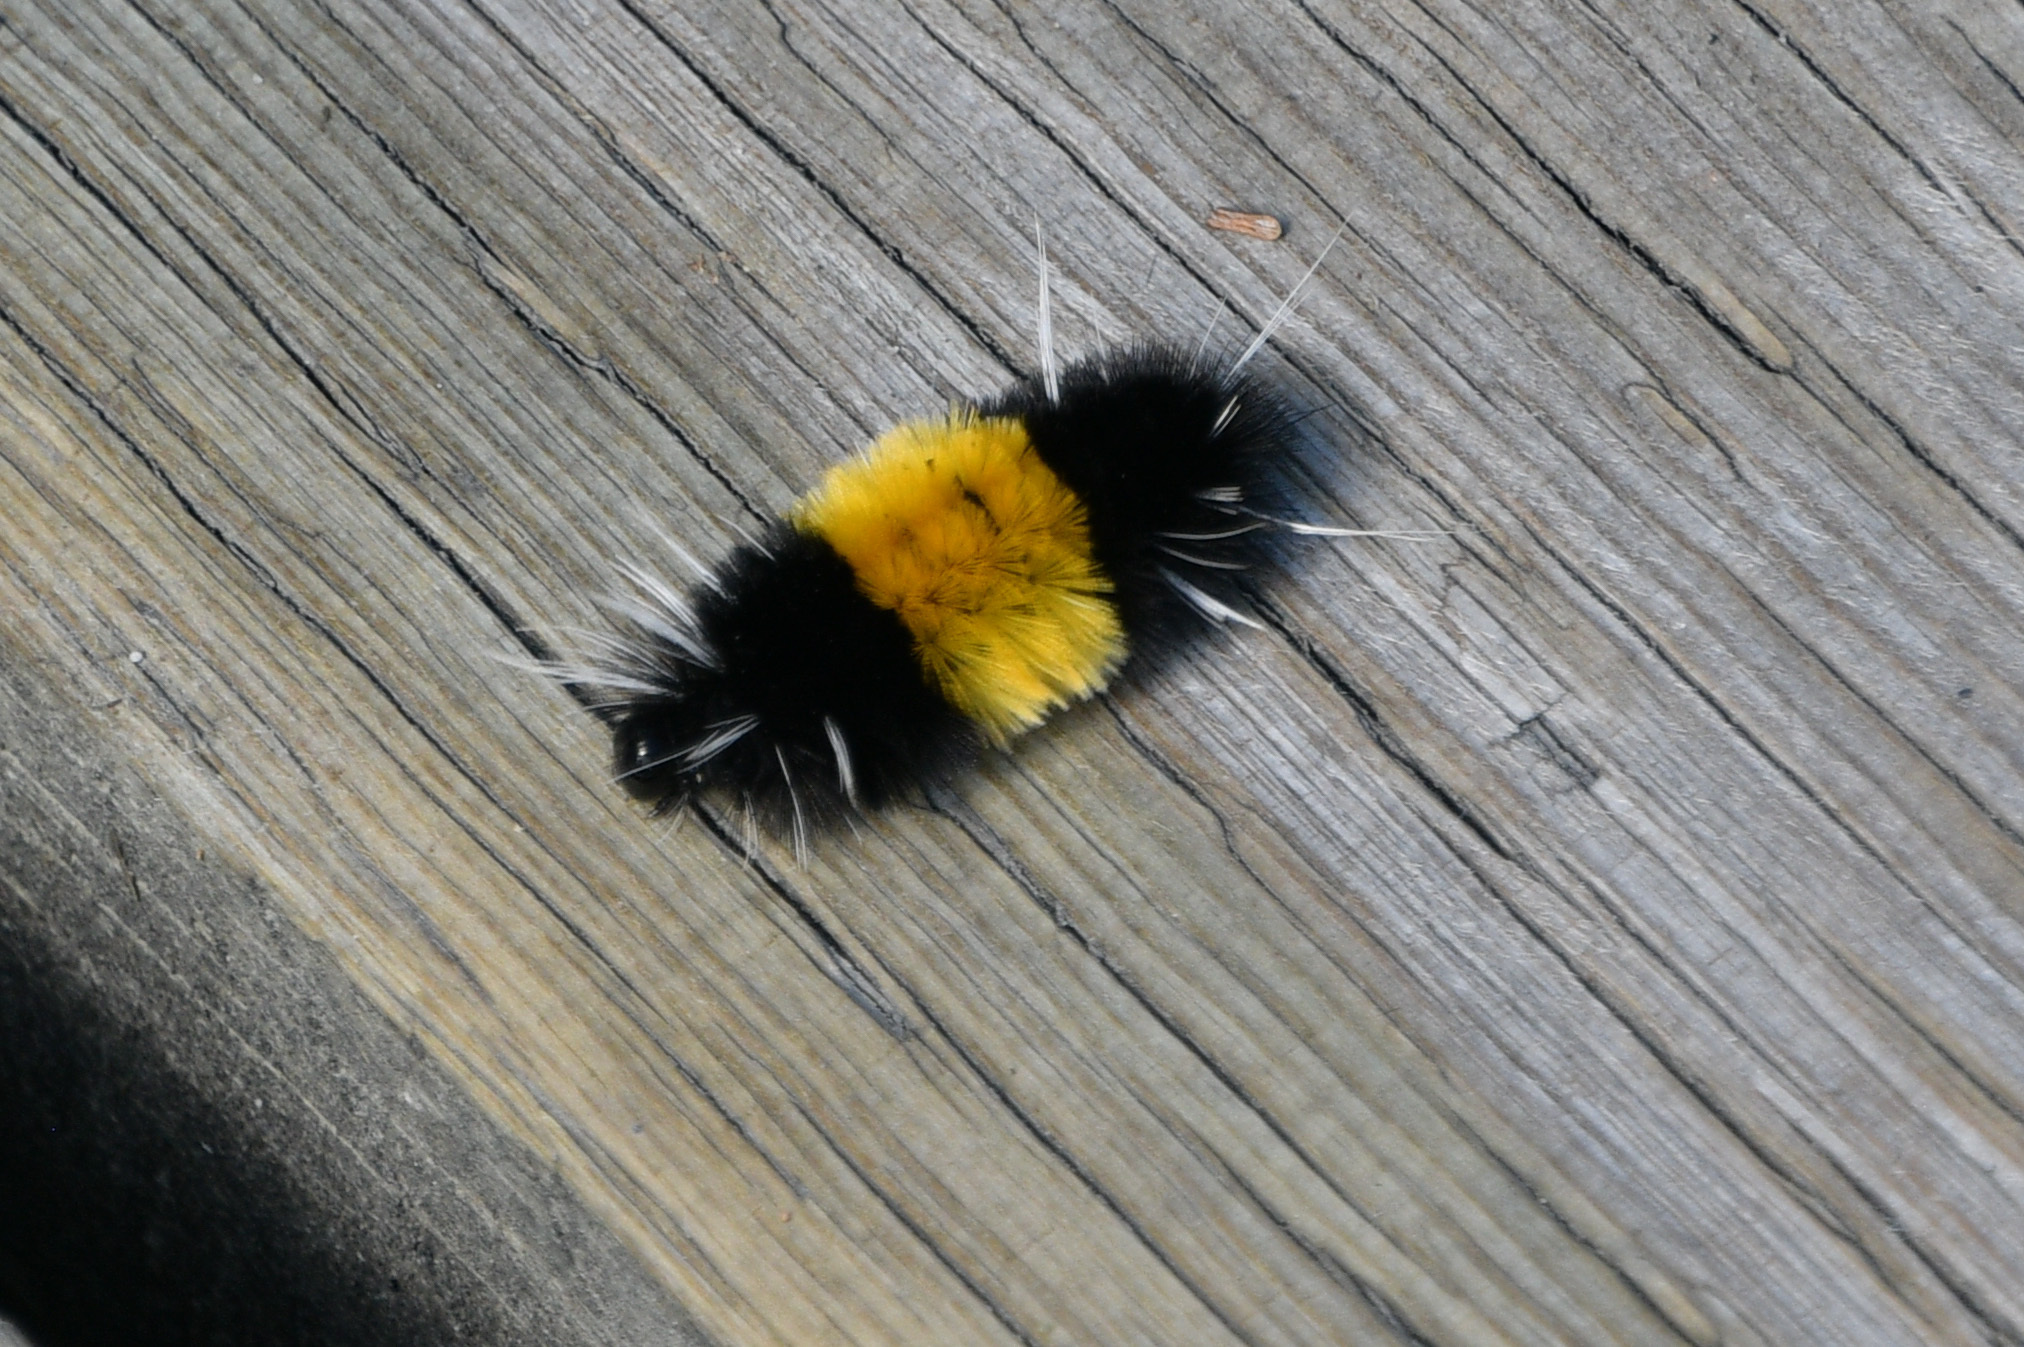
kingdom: Animalia
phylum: Arthropoda
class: Insecta
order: Lepidoptera
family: Erebidae
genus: Lophocampa
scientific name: Lophocampa maculata
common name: Spotted tussock moth
